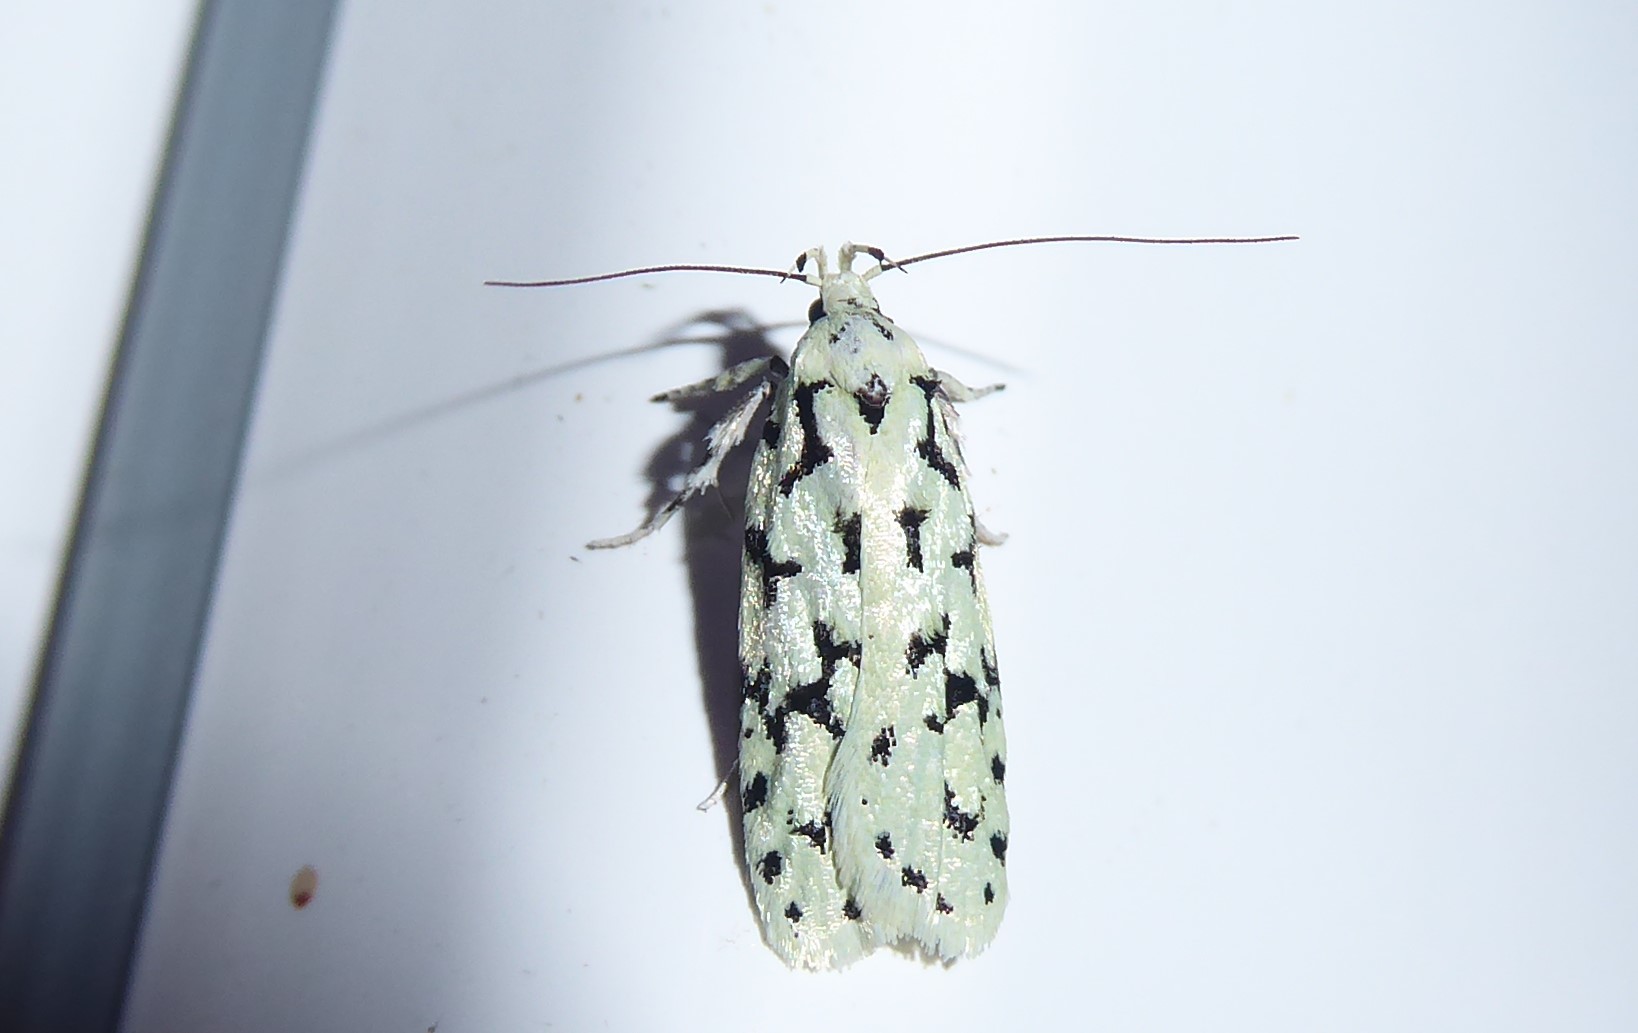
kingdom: Animalia
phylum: Arthropoda
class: Insecta
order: Lepidoptera
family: Oecophoridae
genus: Izatha
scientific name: Izatha huttoni
